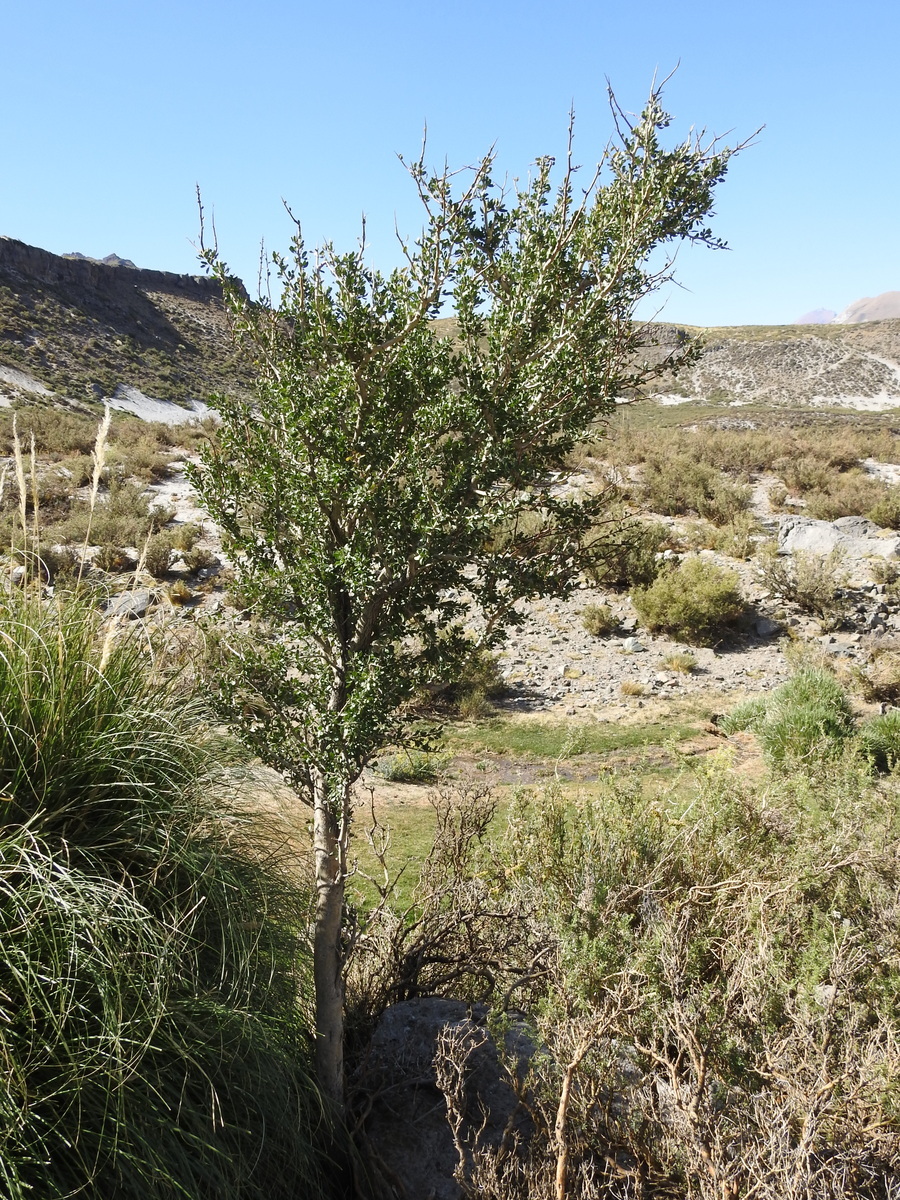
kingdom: Plantae
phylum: Tracheophyta
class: Magnoliopsida
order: Sapindales
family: Anacardiaceae
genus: Schinus
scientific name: Schinus odonellii
